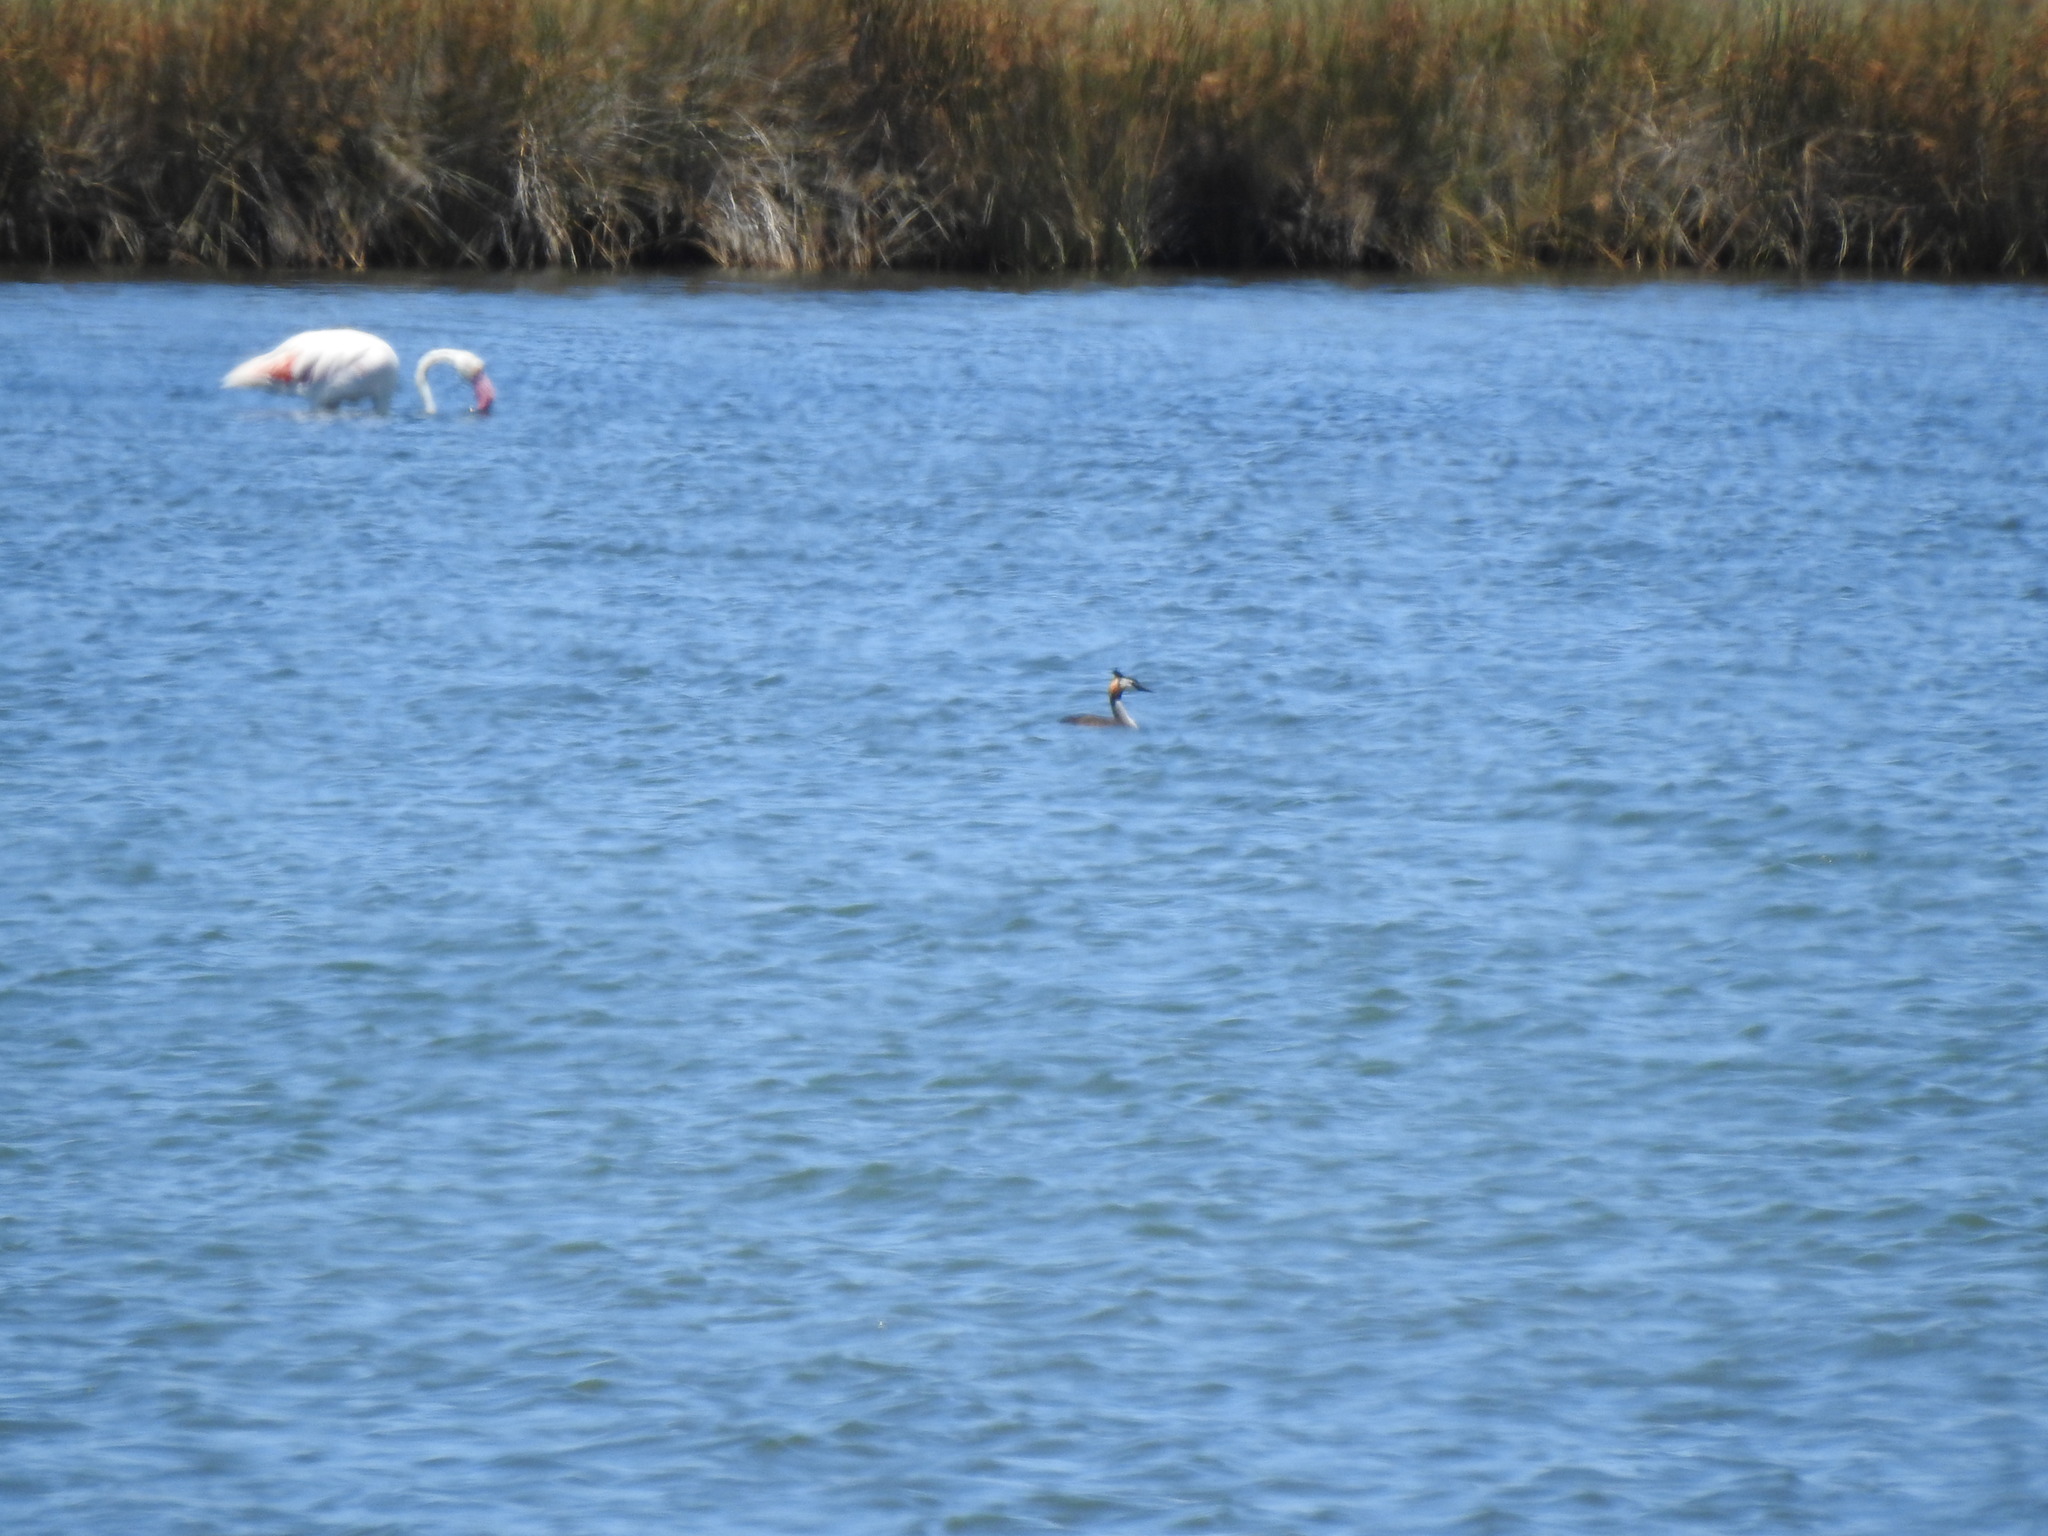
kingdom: Animalia
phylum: Chordata
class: Aves
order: Podicipediformes
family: Podicipedidae
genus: Podiceps
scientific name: Podiceps cristatus
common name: Great crested grebe
